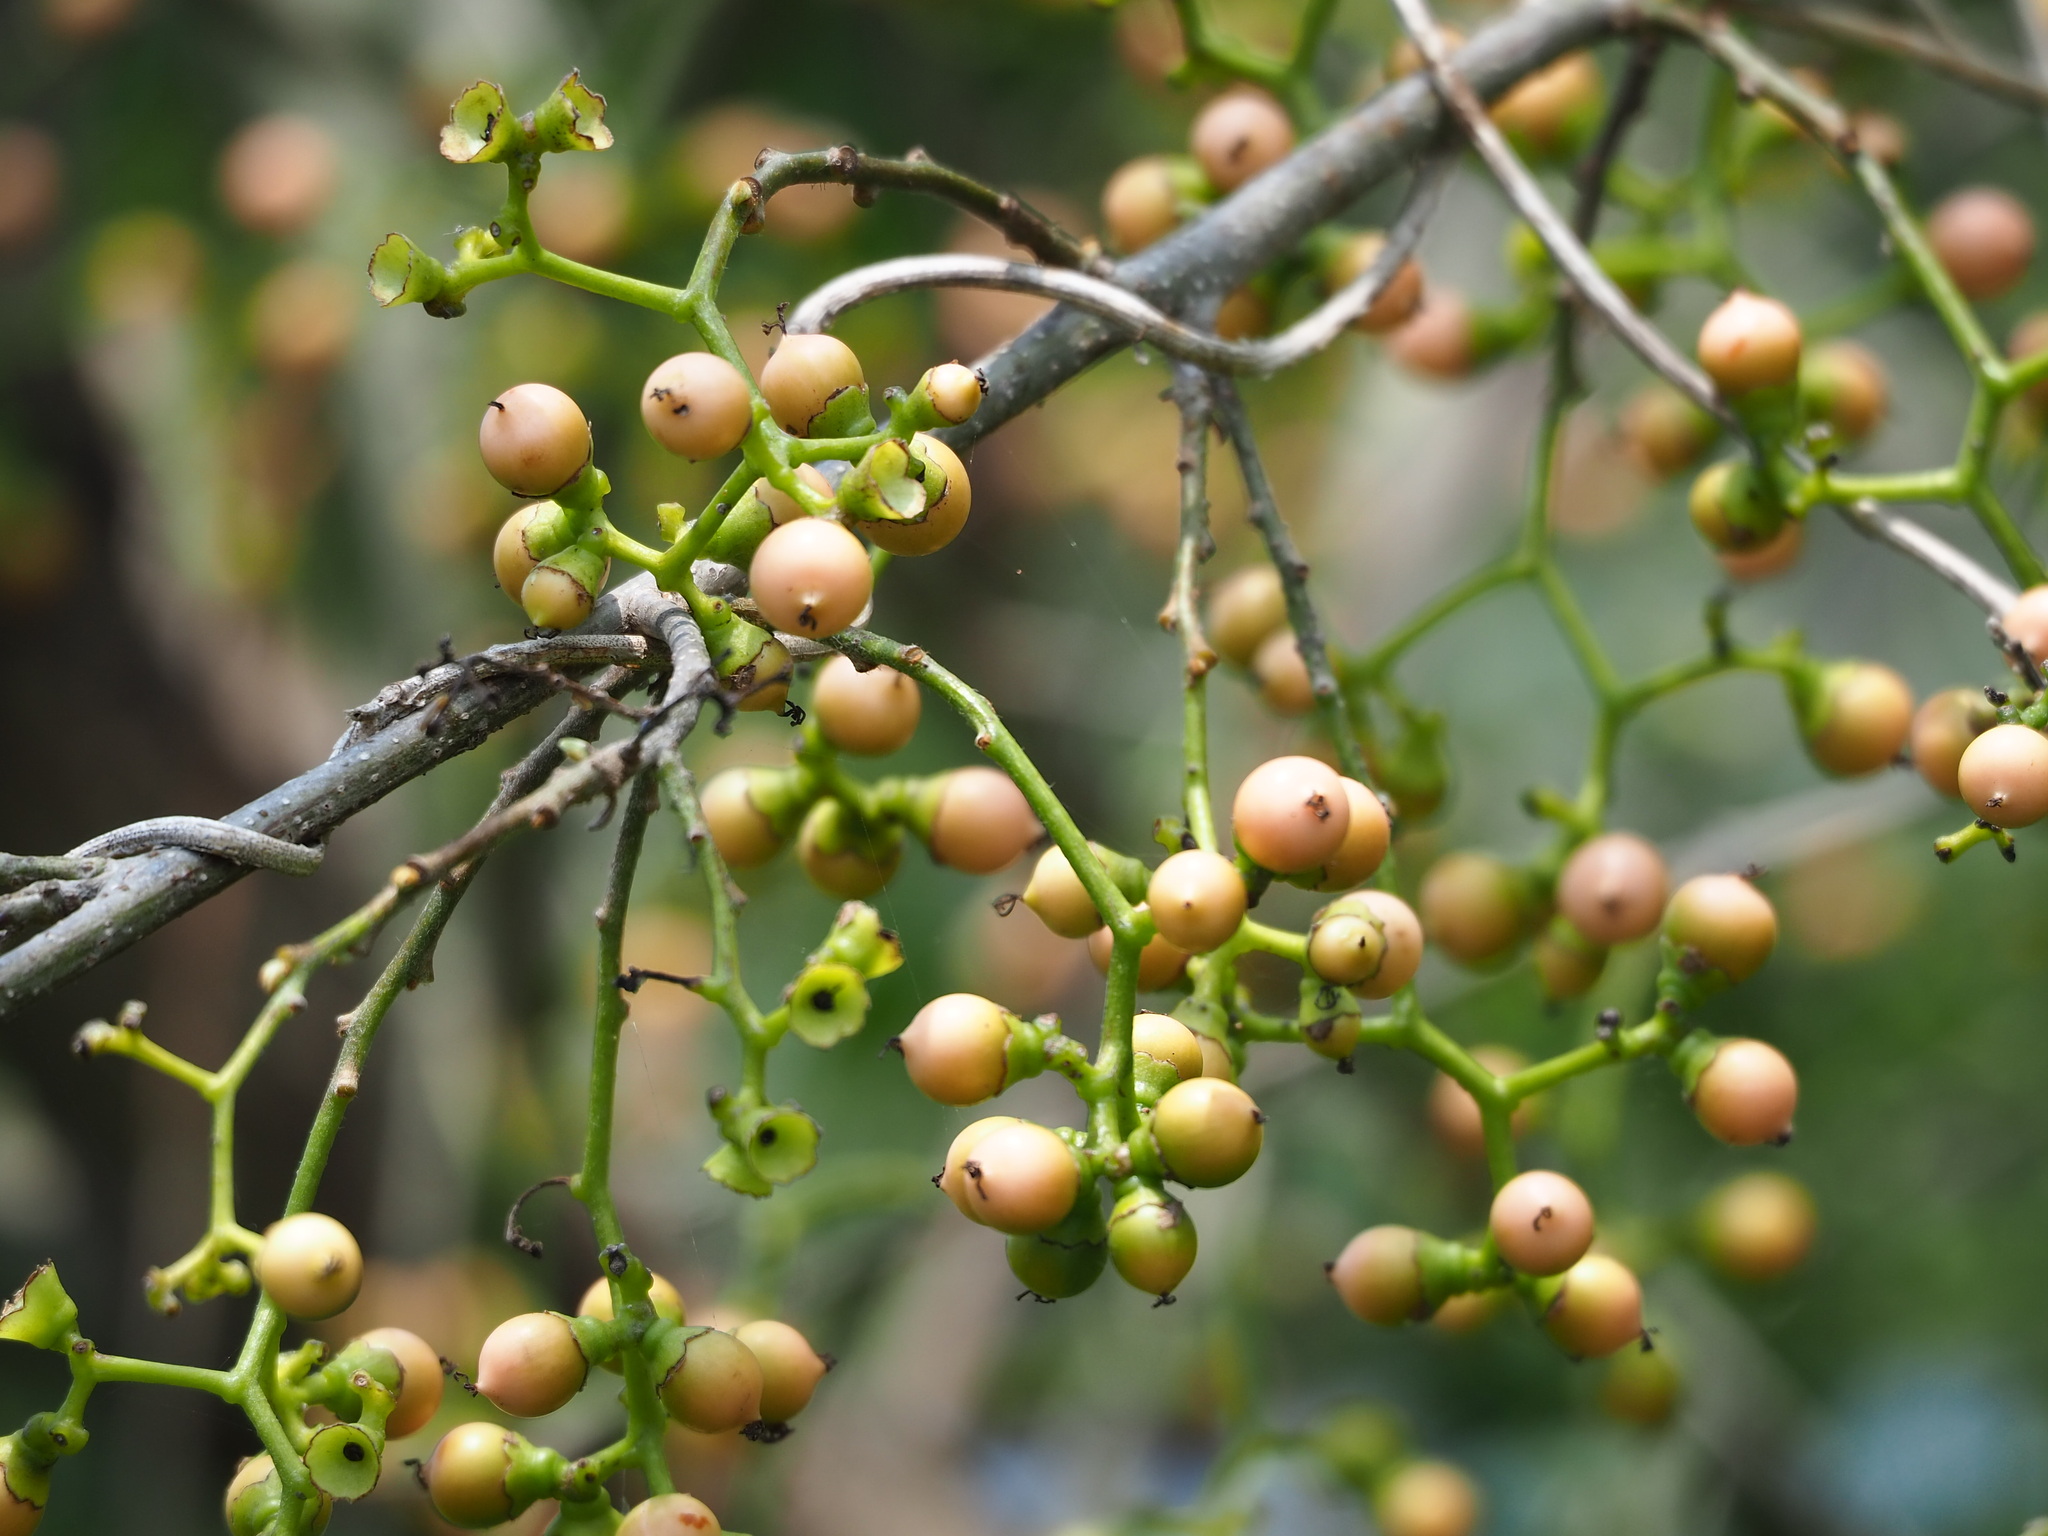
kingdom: Plantae
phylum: Tracheophyta
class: Magnoliopsida
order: Boraginales
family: Cordiaceae
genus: Cordia
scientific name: Cordia dichotoma
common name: Fragrant manjack
